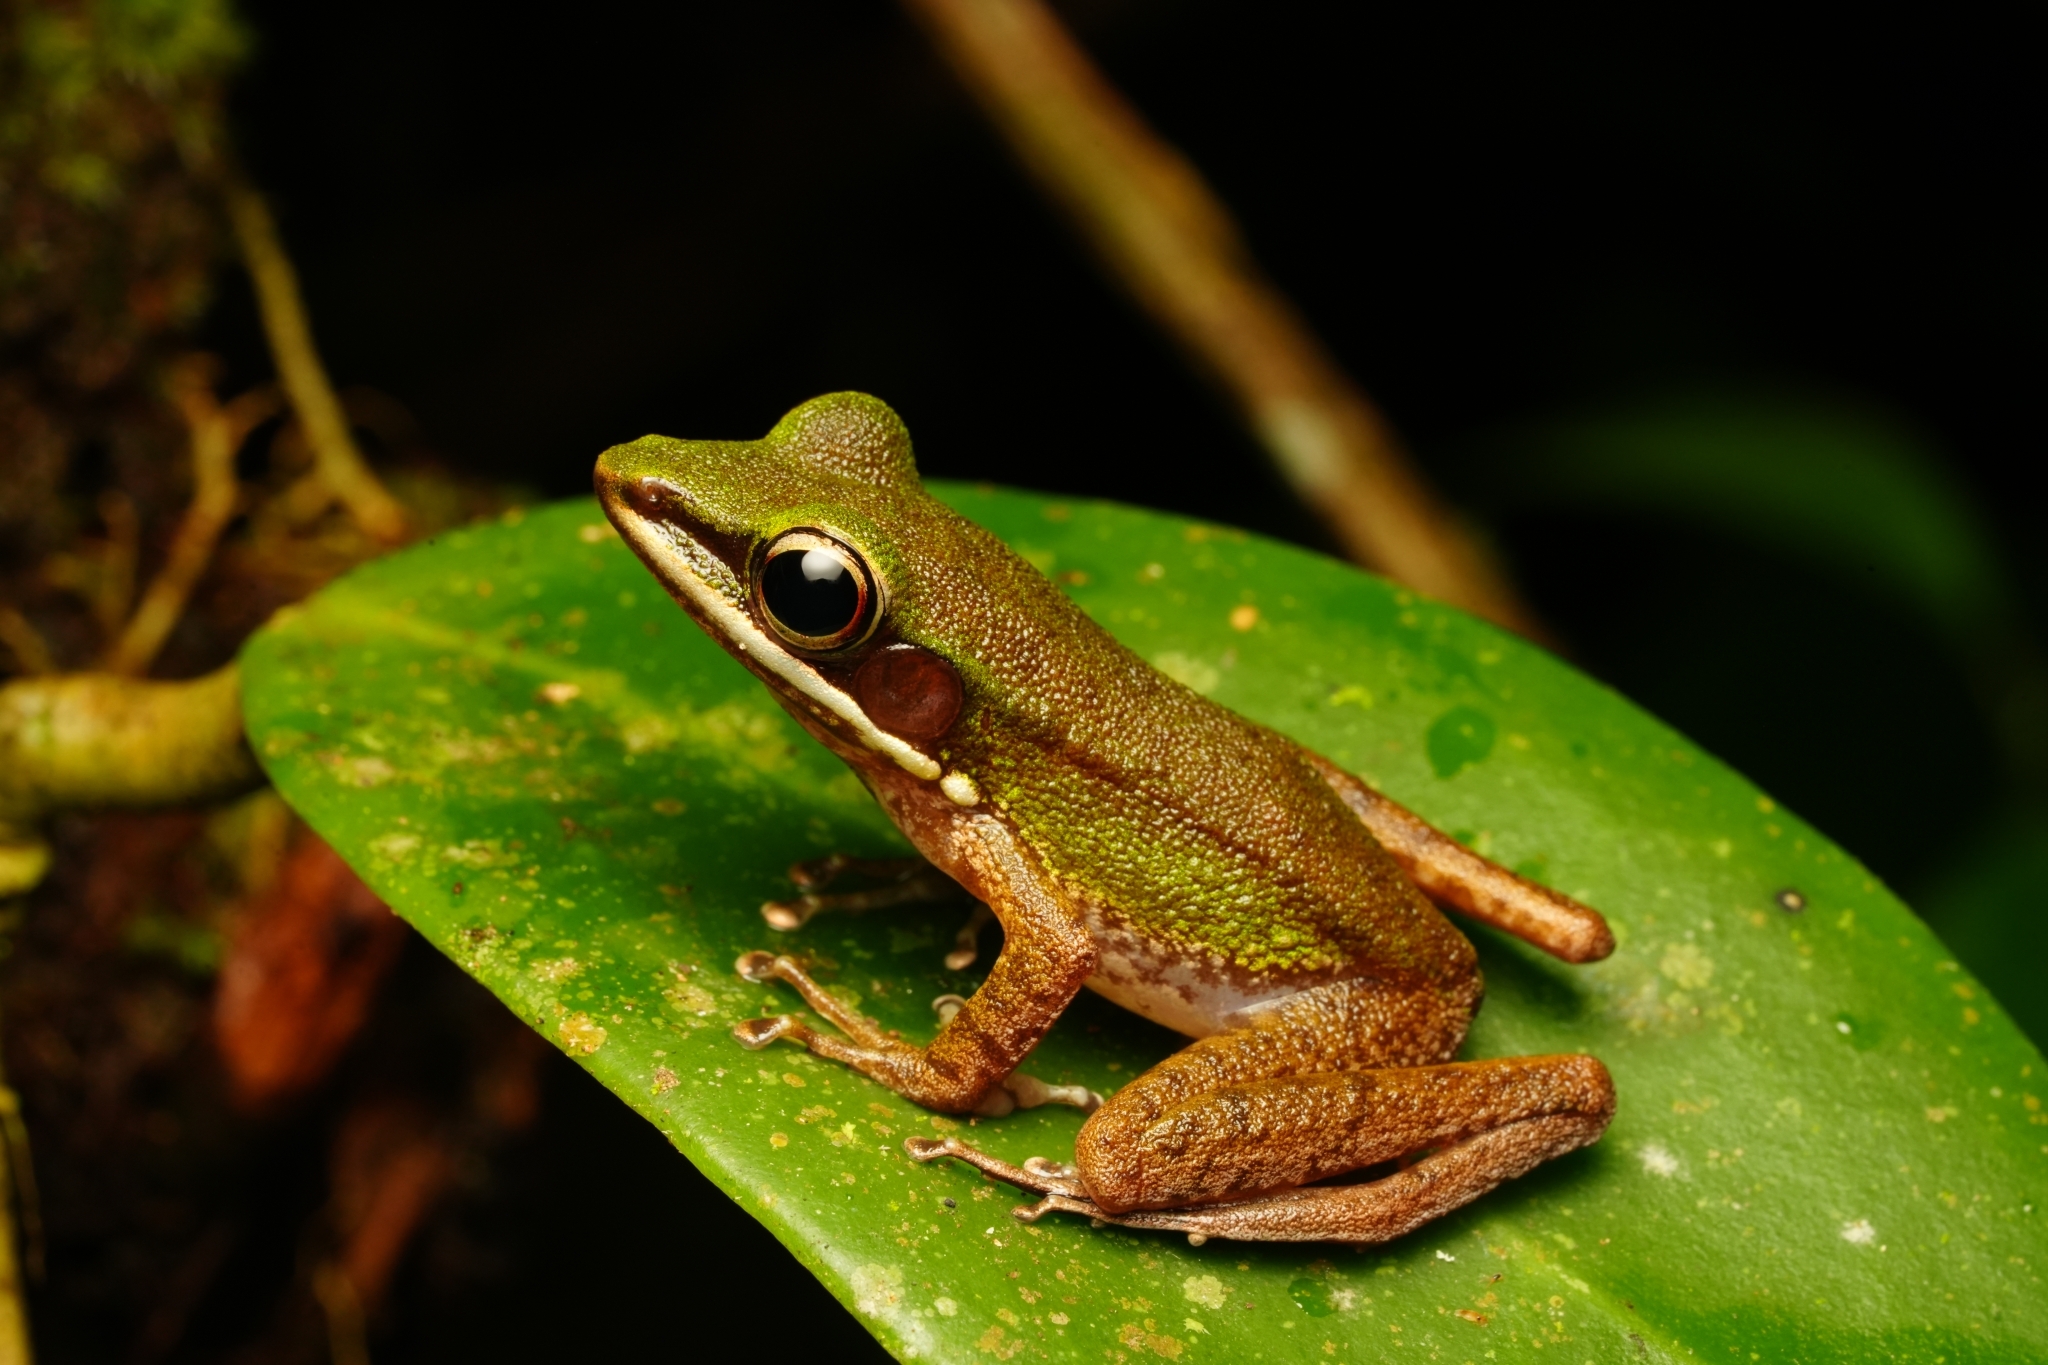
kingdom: Animalia
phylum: Chordata
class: Amphibia
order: Anura
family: Ranidae
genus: Chalcorana
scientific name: Chalcorana labialis
